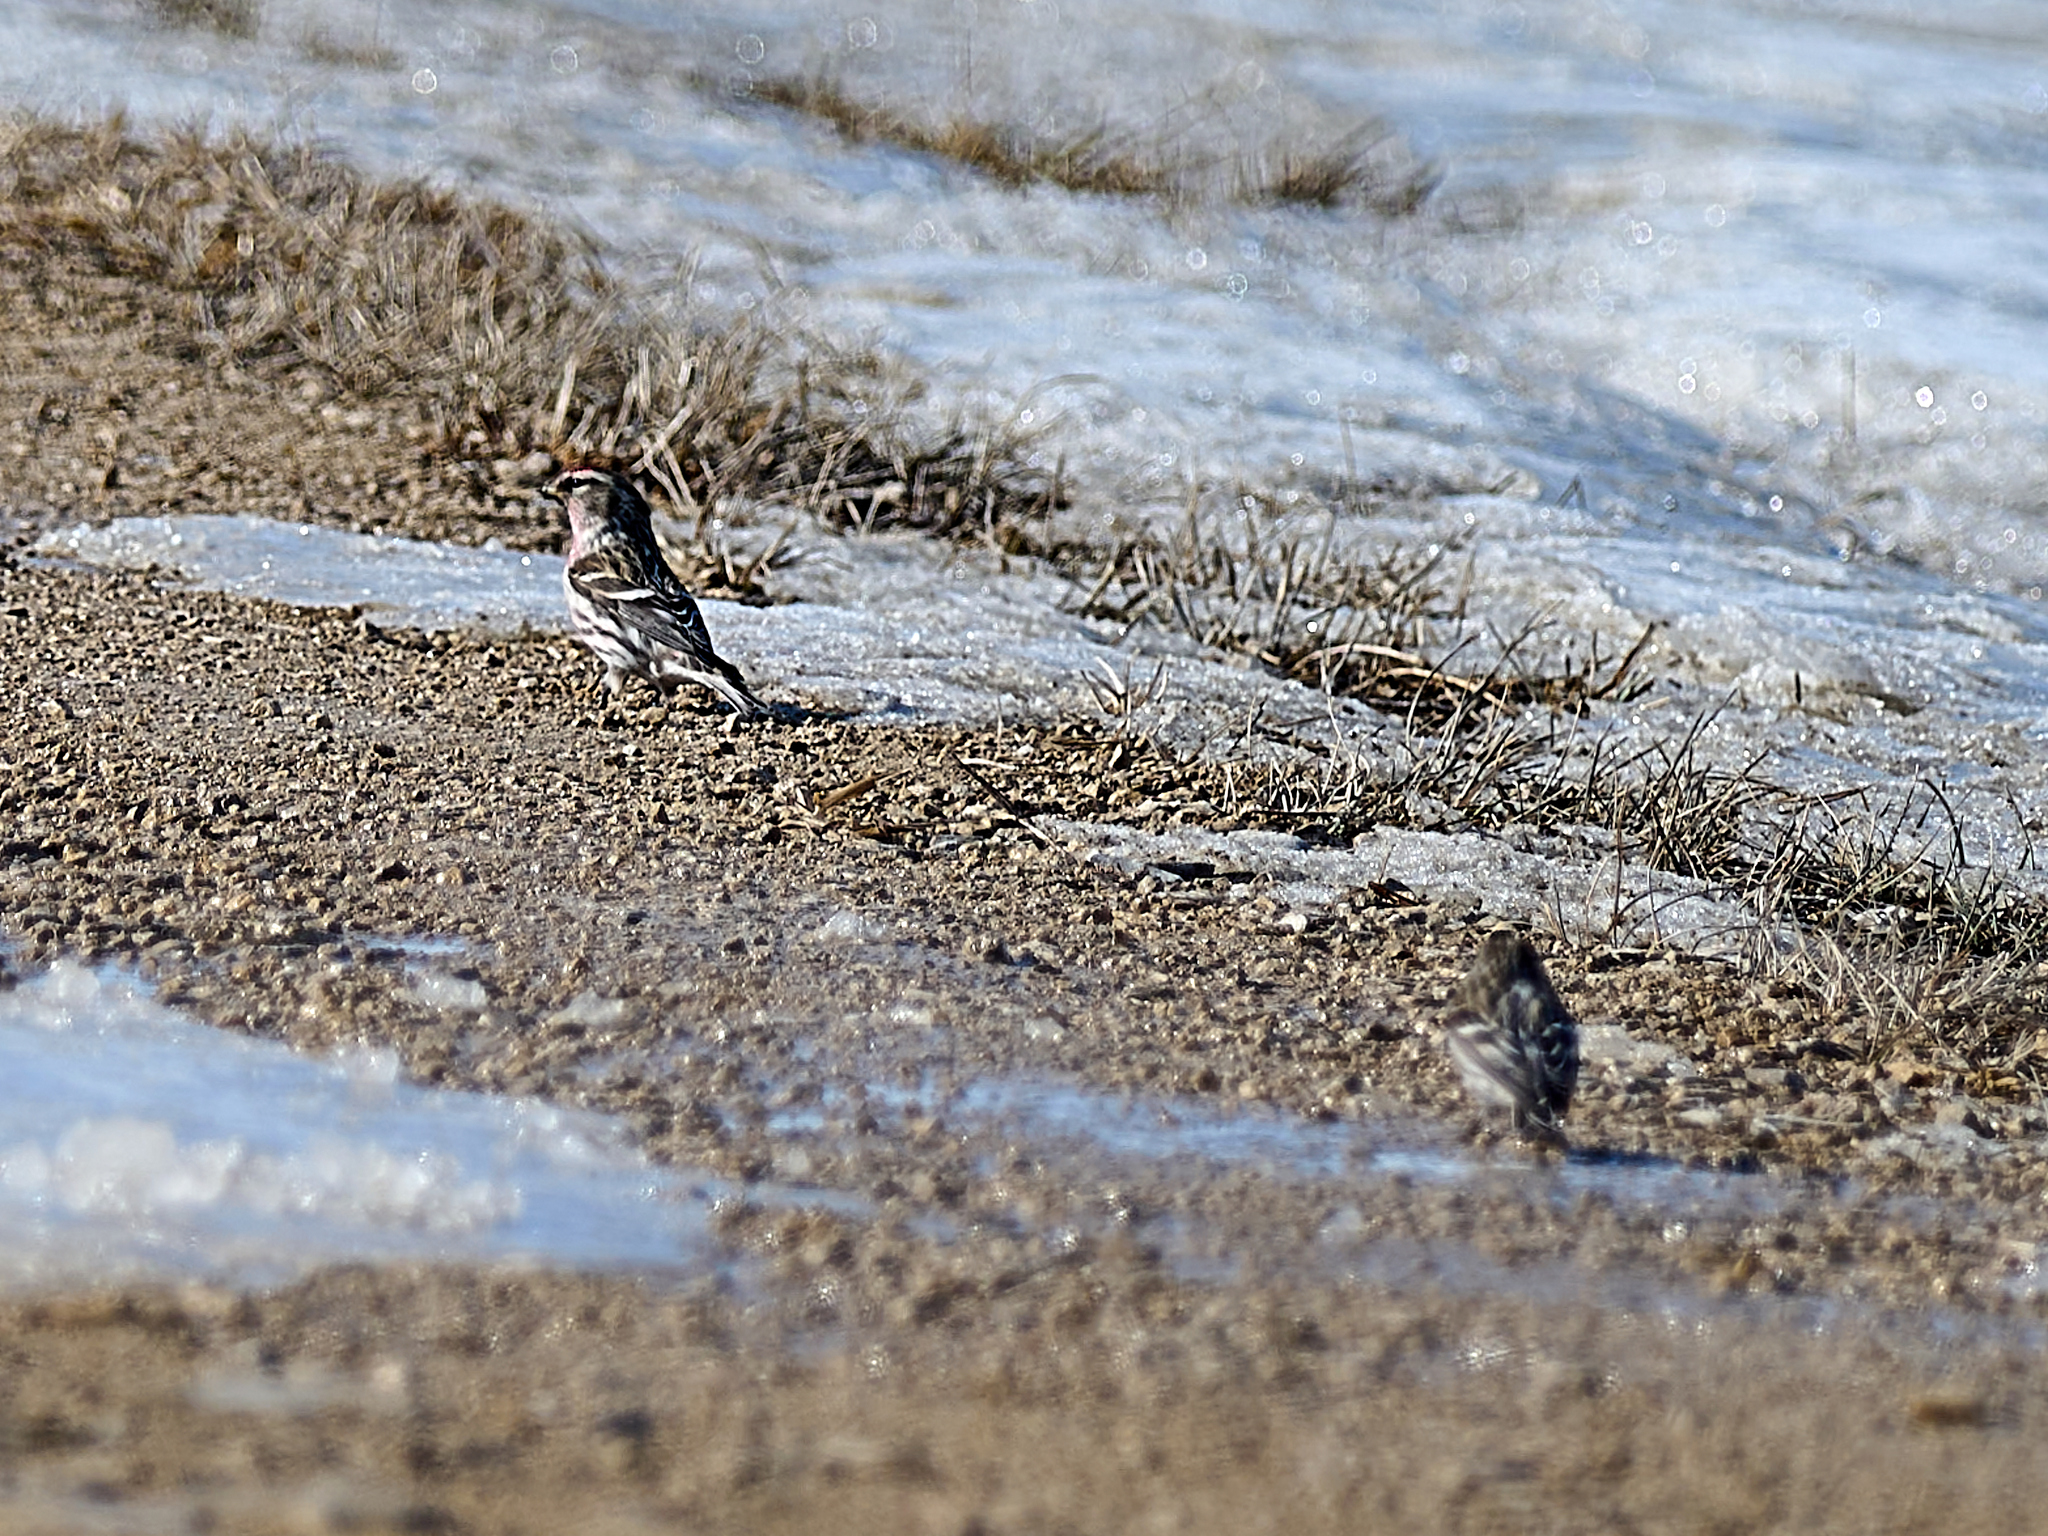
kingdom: Animalia
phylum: Chordata
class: Aves
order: Passeriformes
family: Fringillidae
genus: Acanthis
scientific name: Acanthis flammea
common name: Common redpoll
